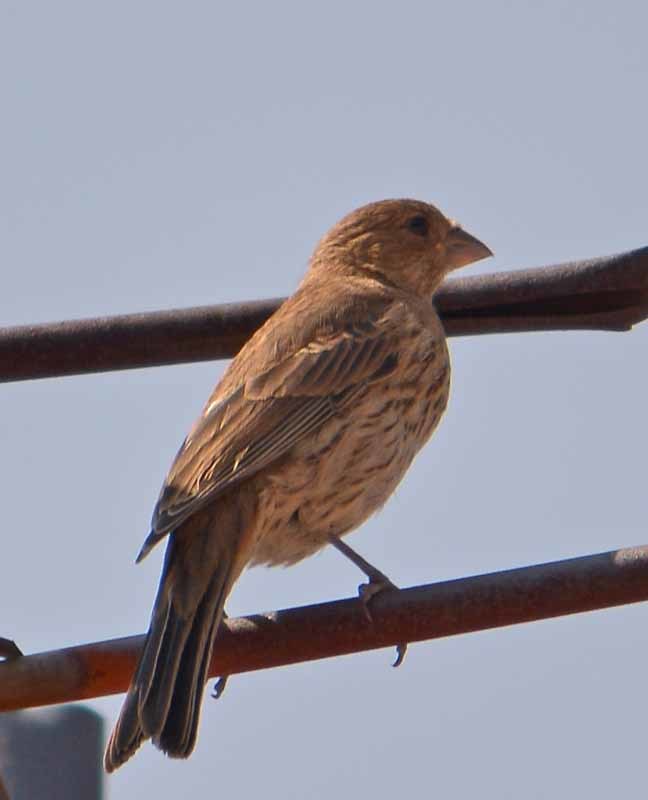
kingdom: Animalia
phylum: Chordata
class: Aves
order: Passeriformes
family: Fringillidae
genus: Haemorhous
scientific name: Haemorhous mexicanus
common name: House finch
